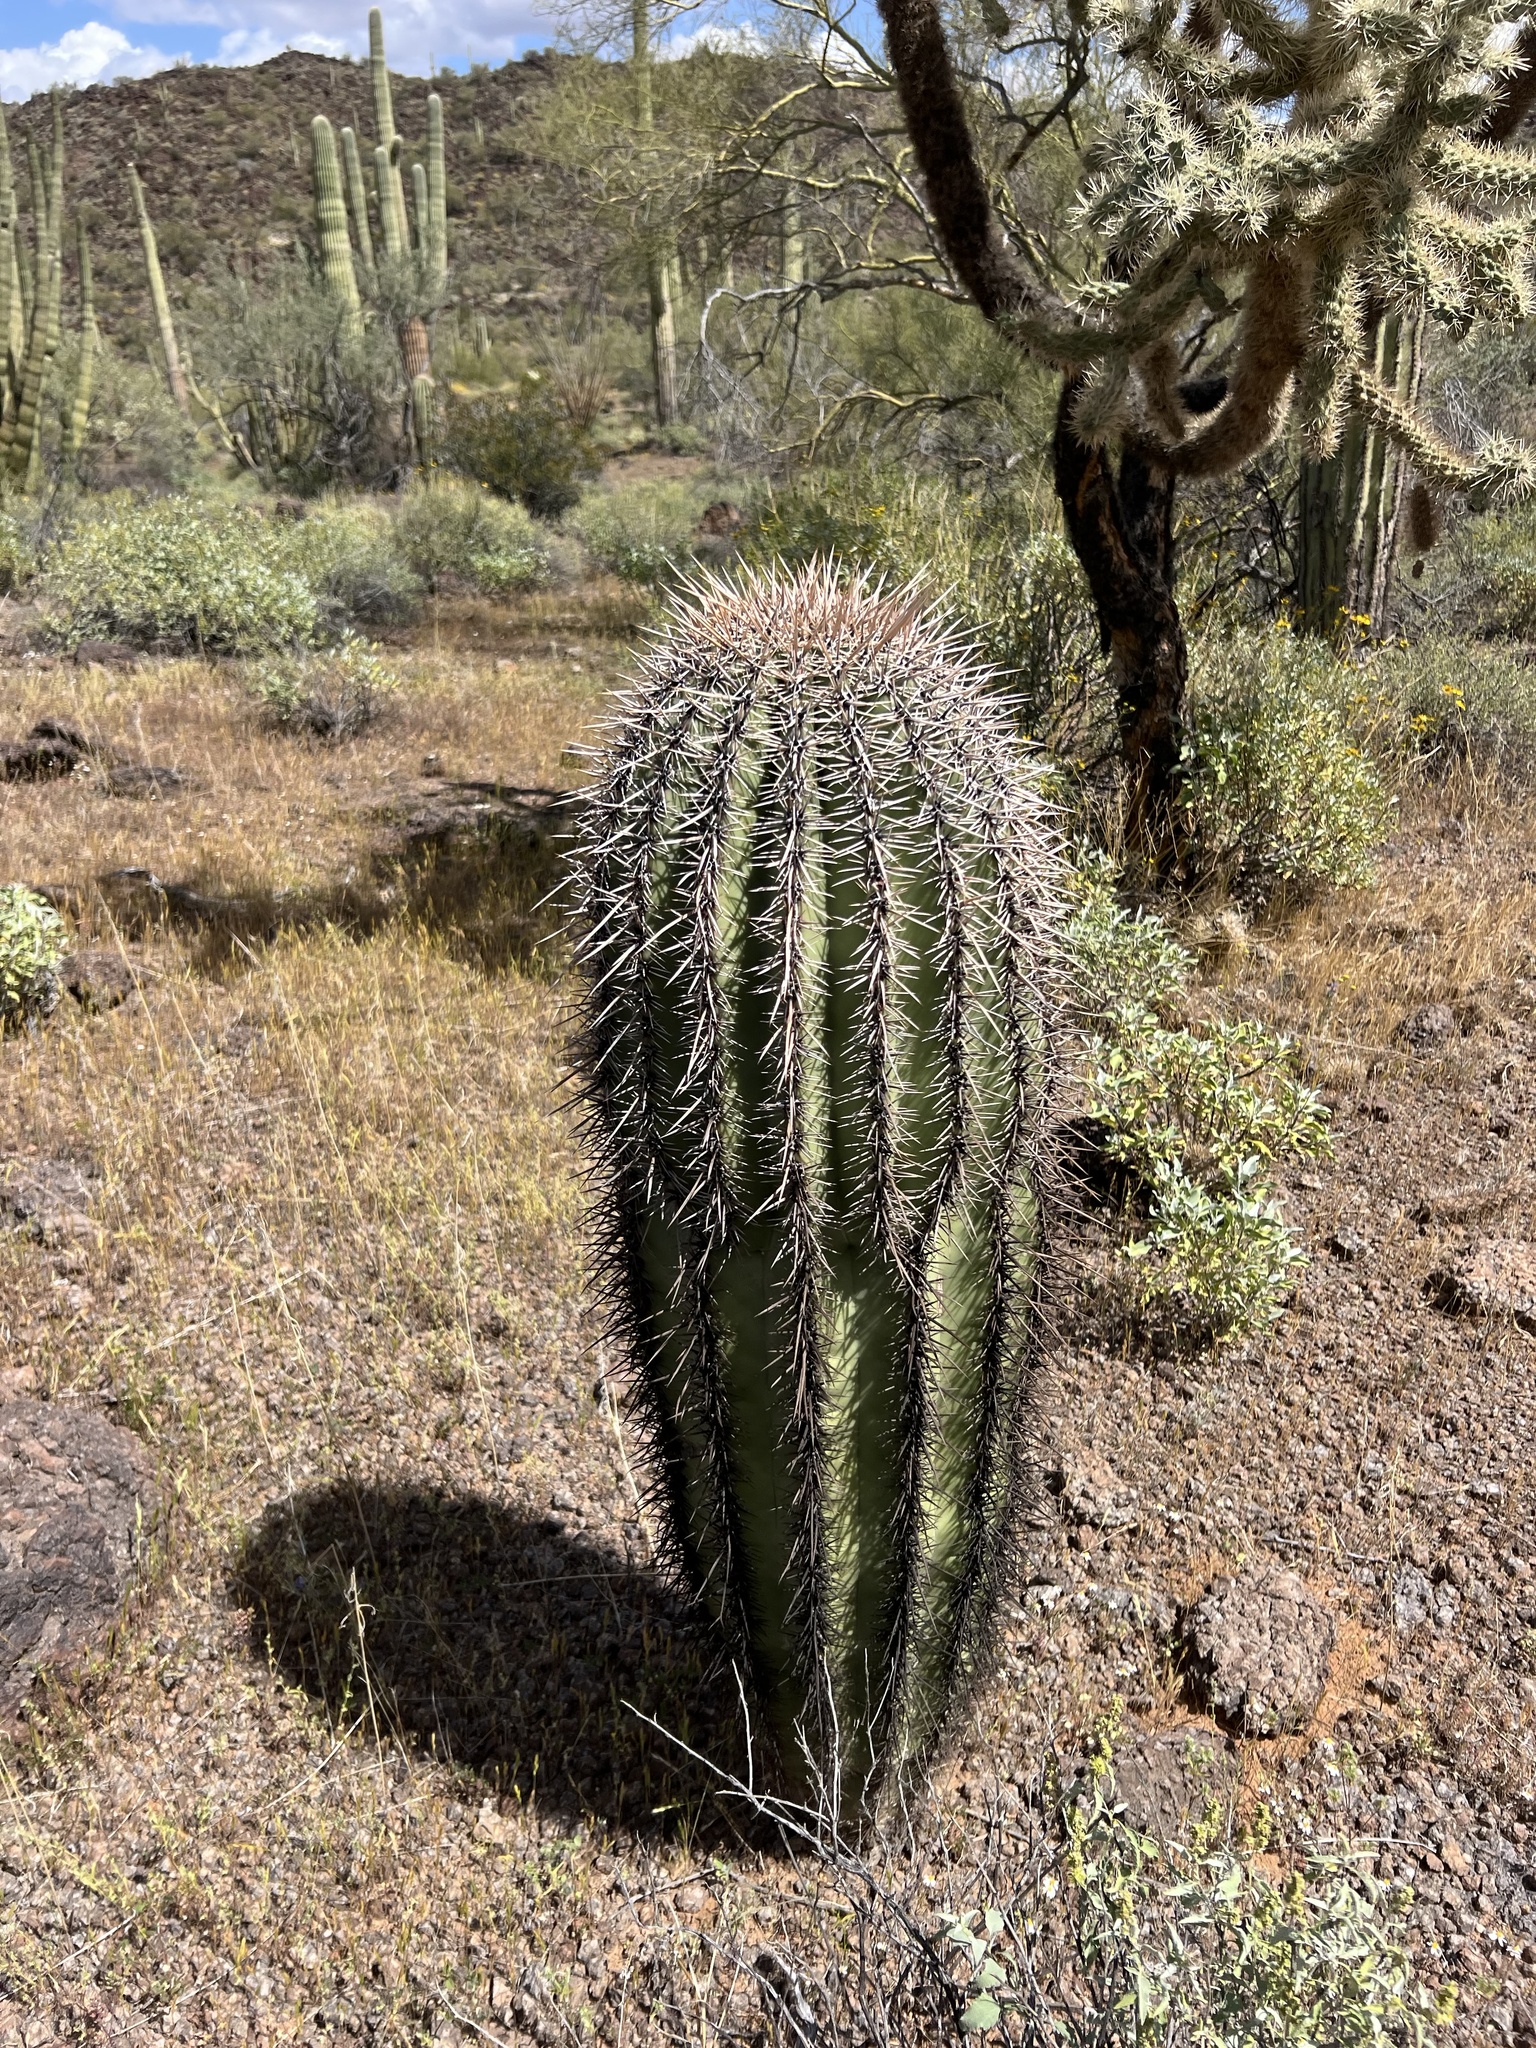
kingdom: Plantae
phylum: Tracheophyta
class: Magnoliopsida
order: Caryophyllales
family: Cactaceae
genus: Carnegiea
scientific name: Carnegiea gigantea
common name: Saguaro
